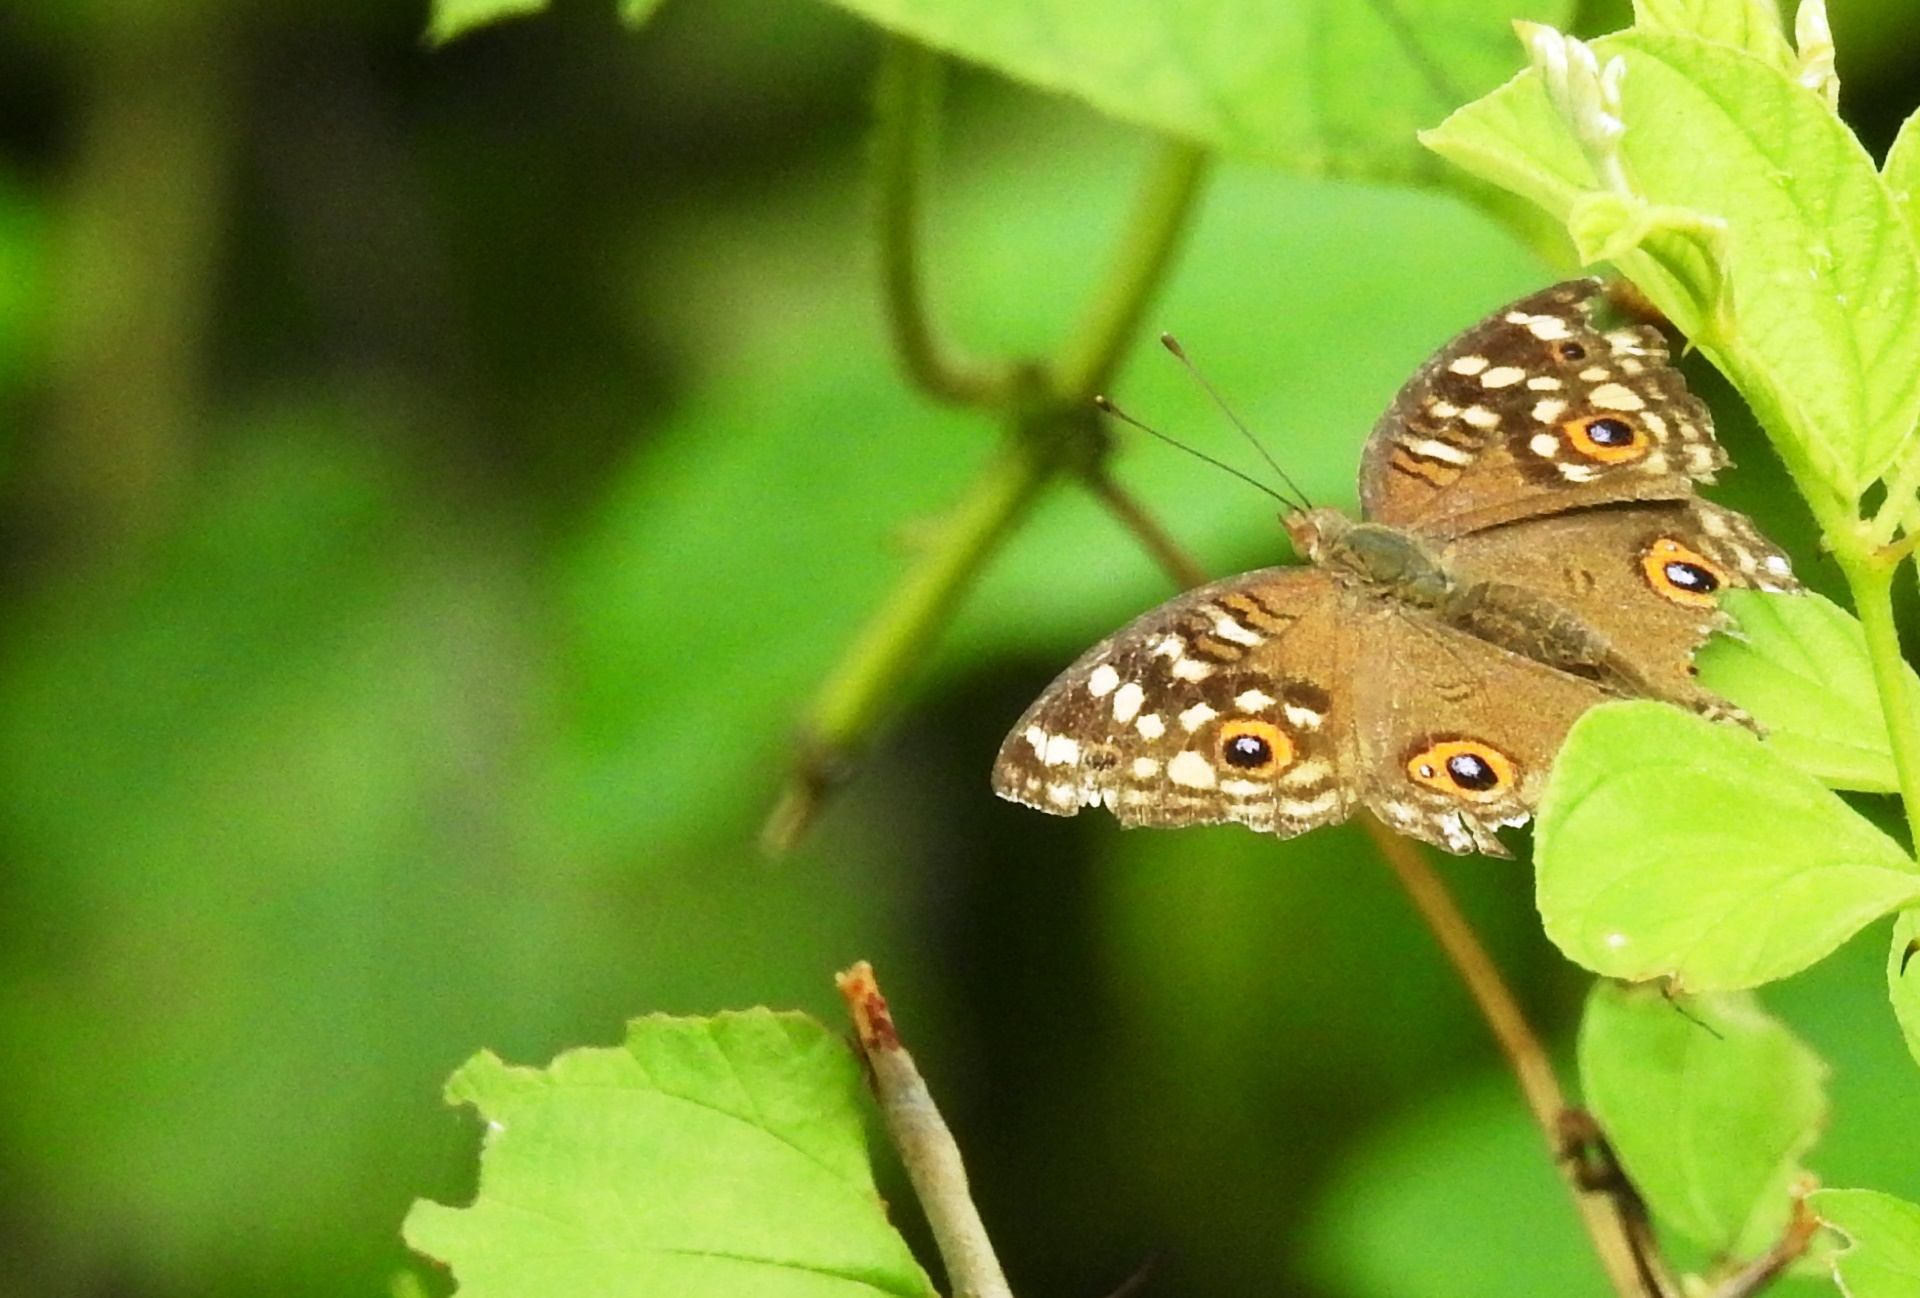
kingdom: Animalia
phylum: Arthropoda
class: Insecta
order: Lepidoptera
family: Nymphalidae
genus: Junonia
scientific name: Junonia lemonias
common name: Lemon pansy
